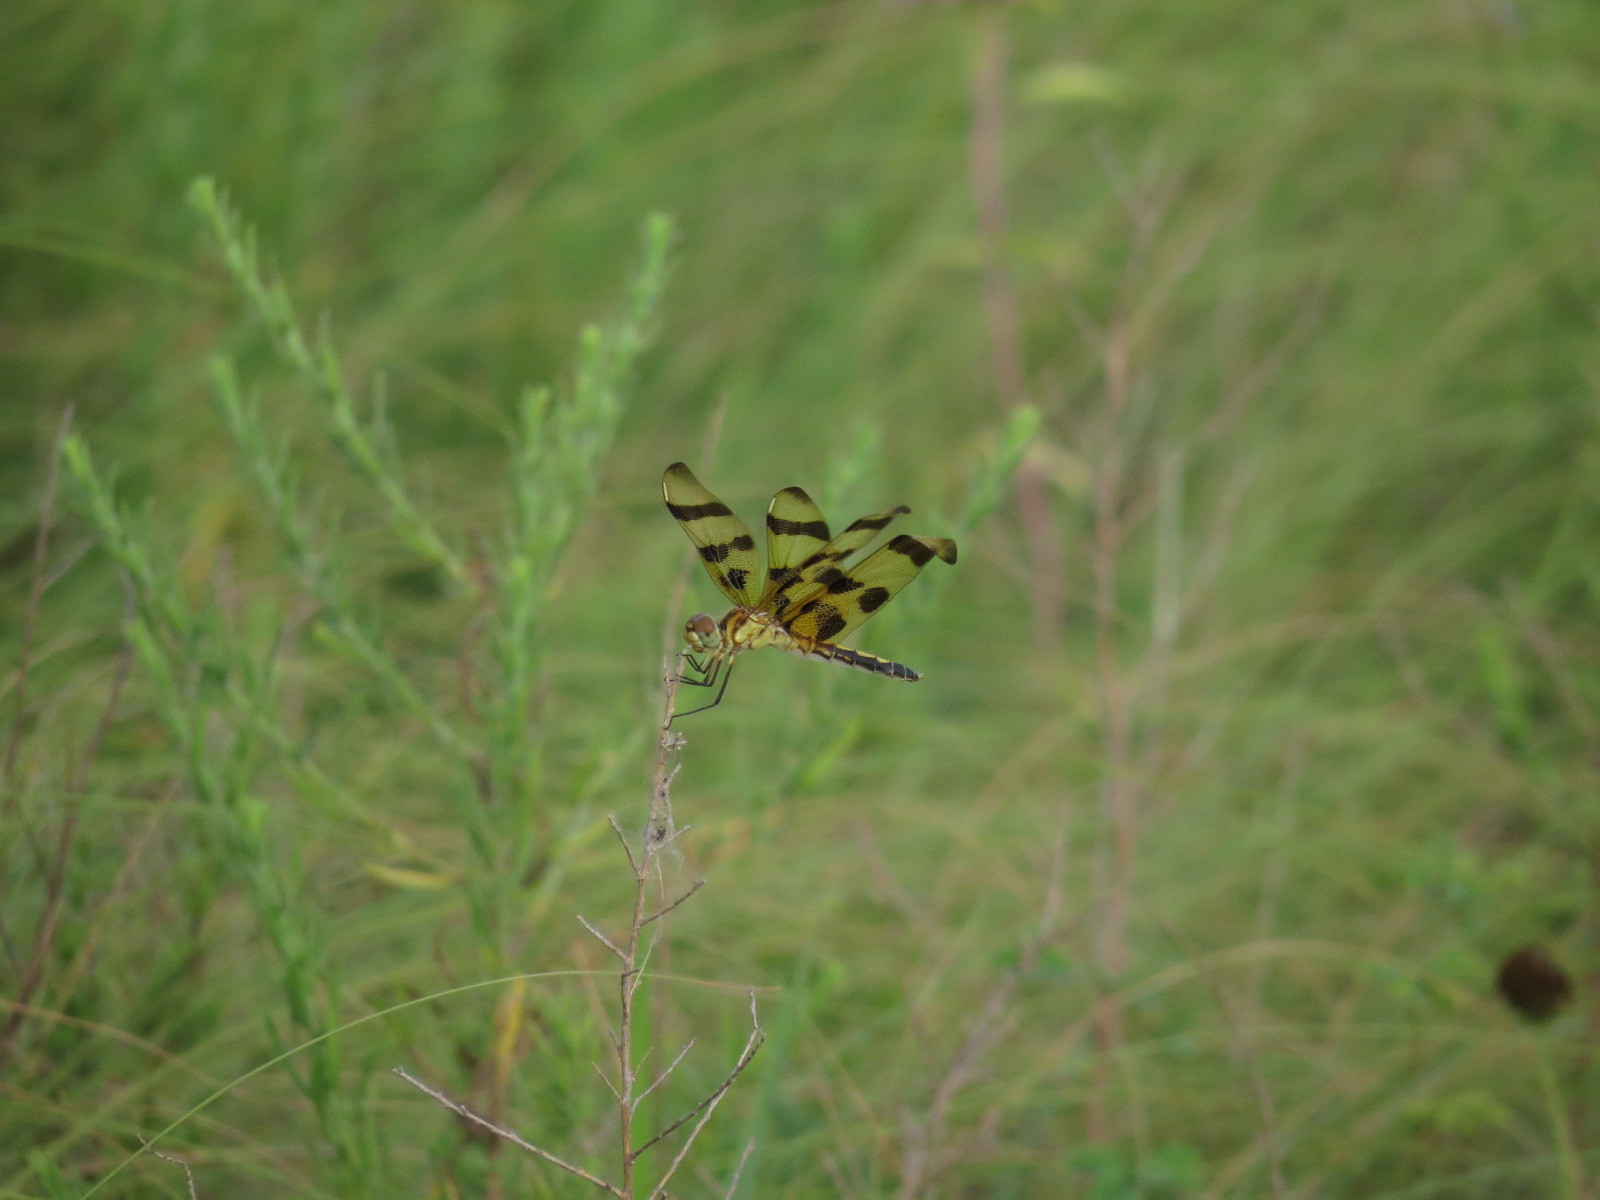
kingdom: Animalia
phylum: Arthropoda
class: Insecta
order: Odonata
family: Libellulidae
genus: Celithemis
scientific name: Celithemis eponina
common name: Halloween pennant
